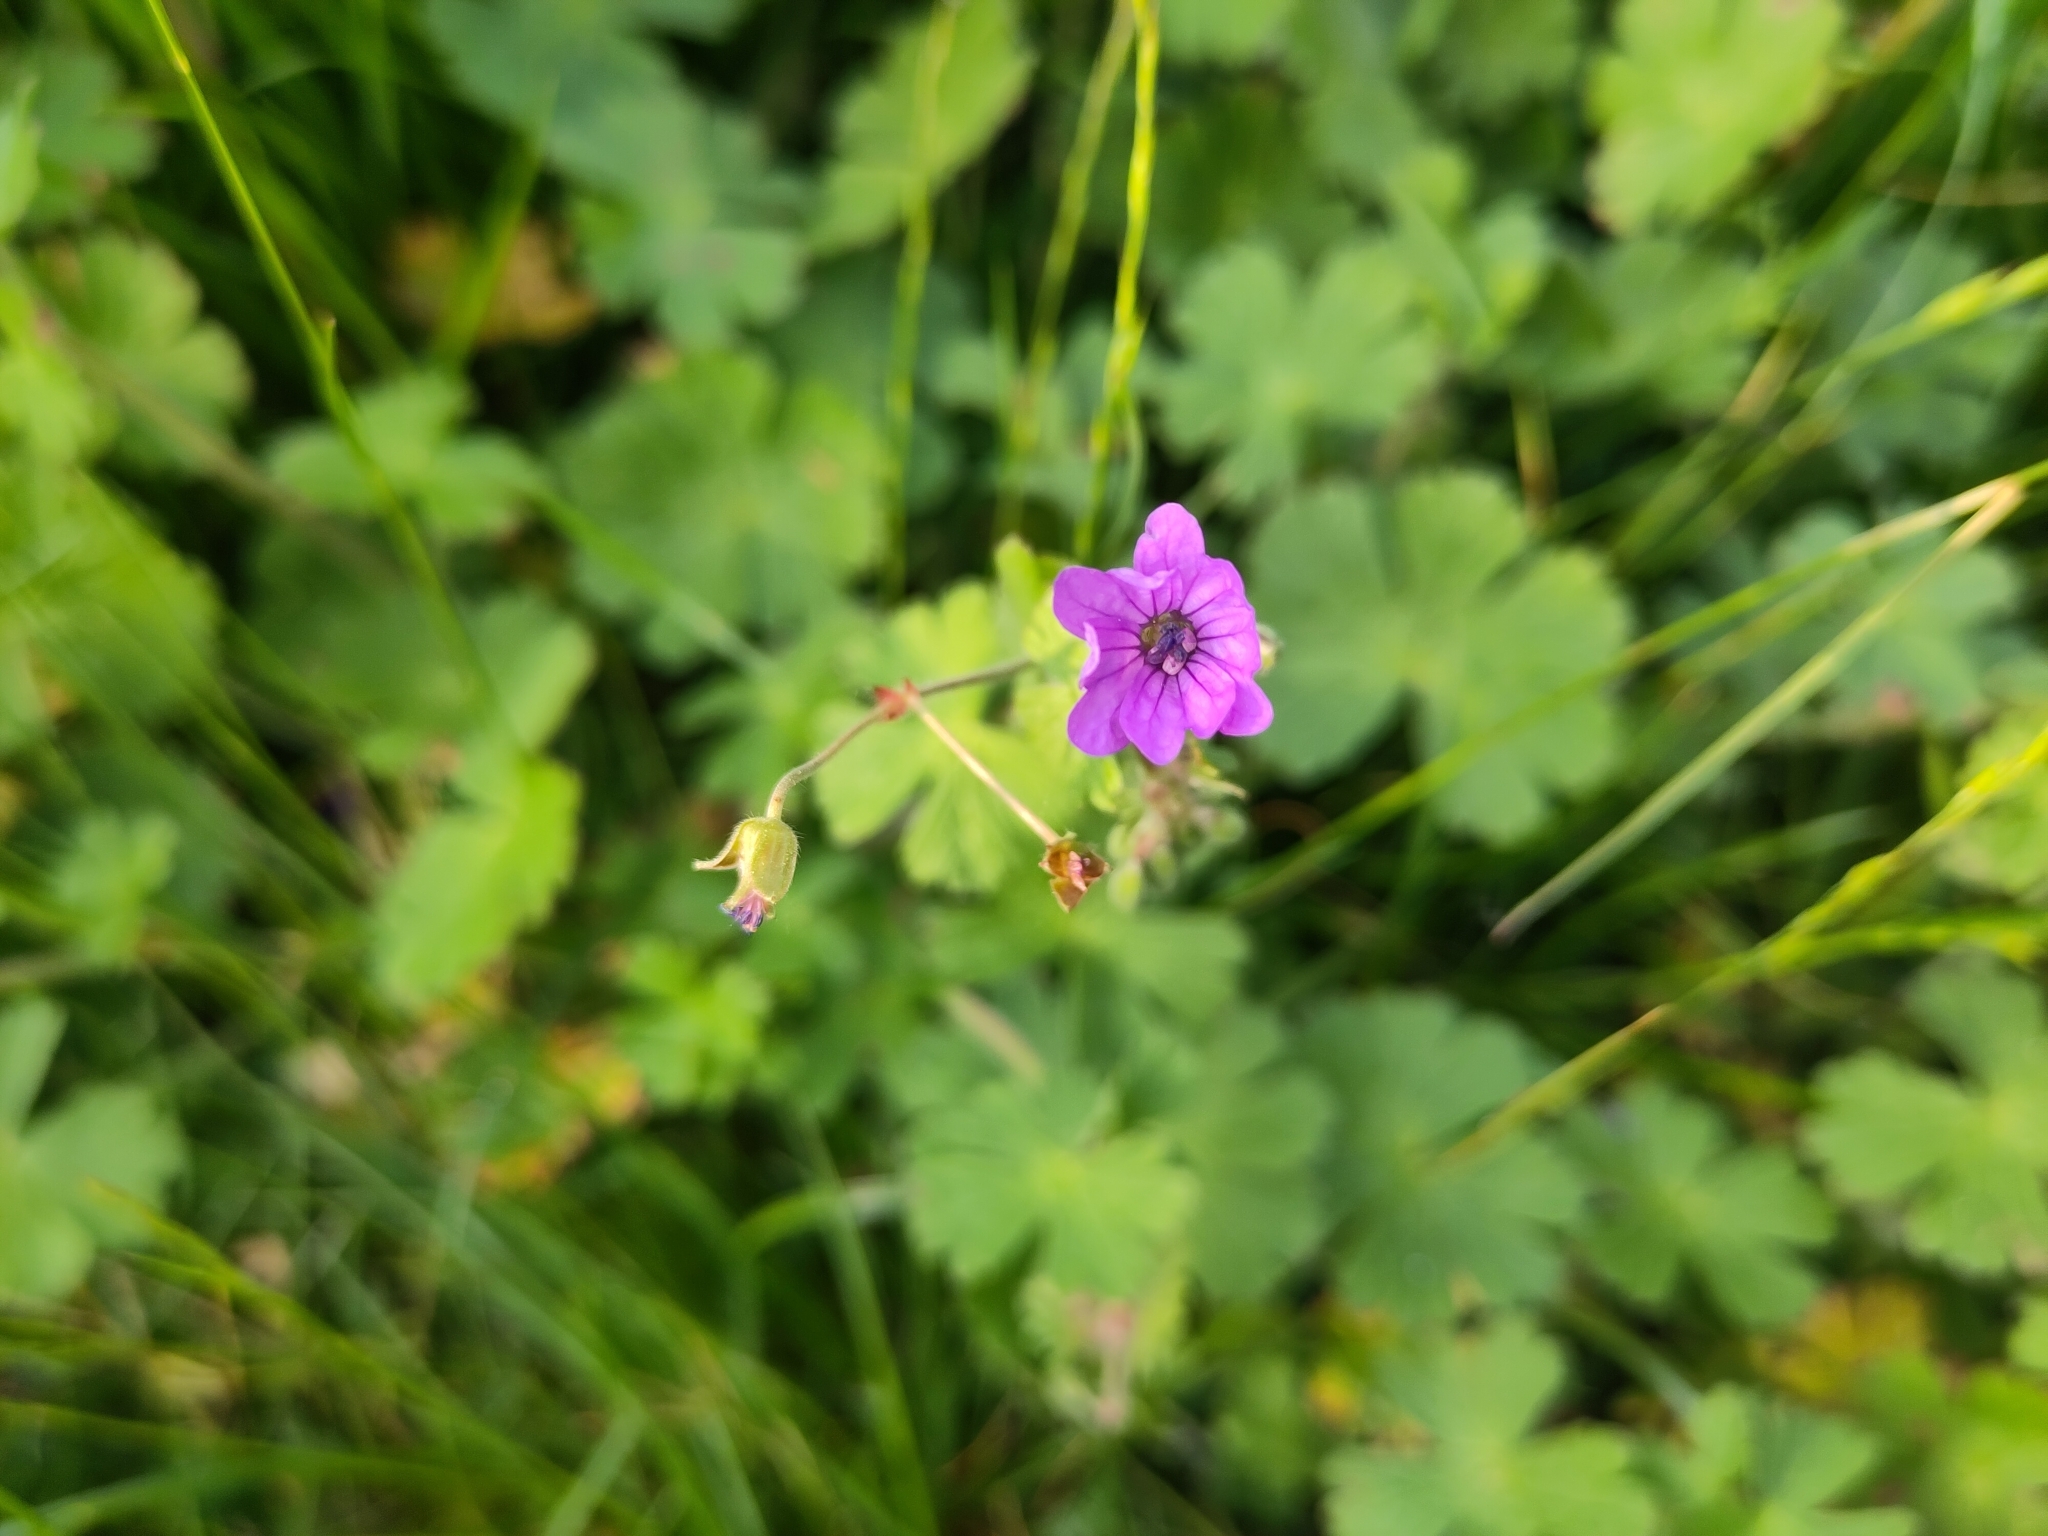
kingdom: Plantae
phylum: Tracheophyta
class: Magnoliopsida
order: Geraniales
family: Geraniaceae
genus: Geranium
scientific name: Geranium pyrenaicum
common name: Hedgerow crane's-bill
